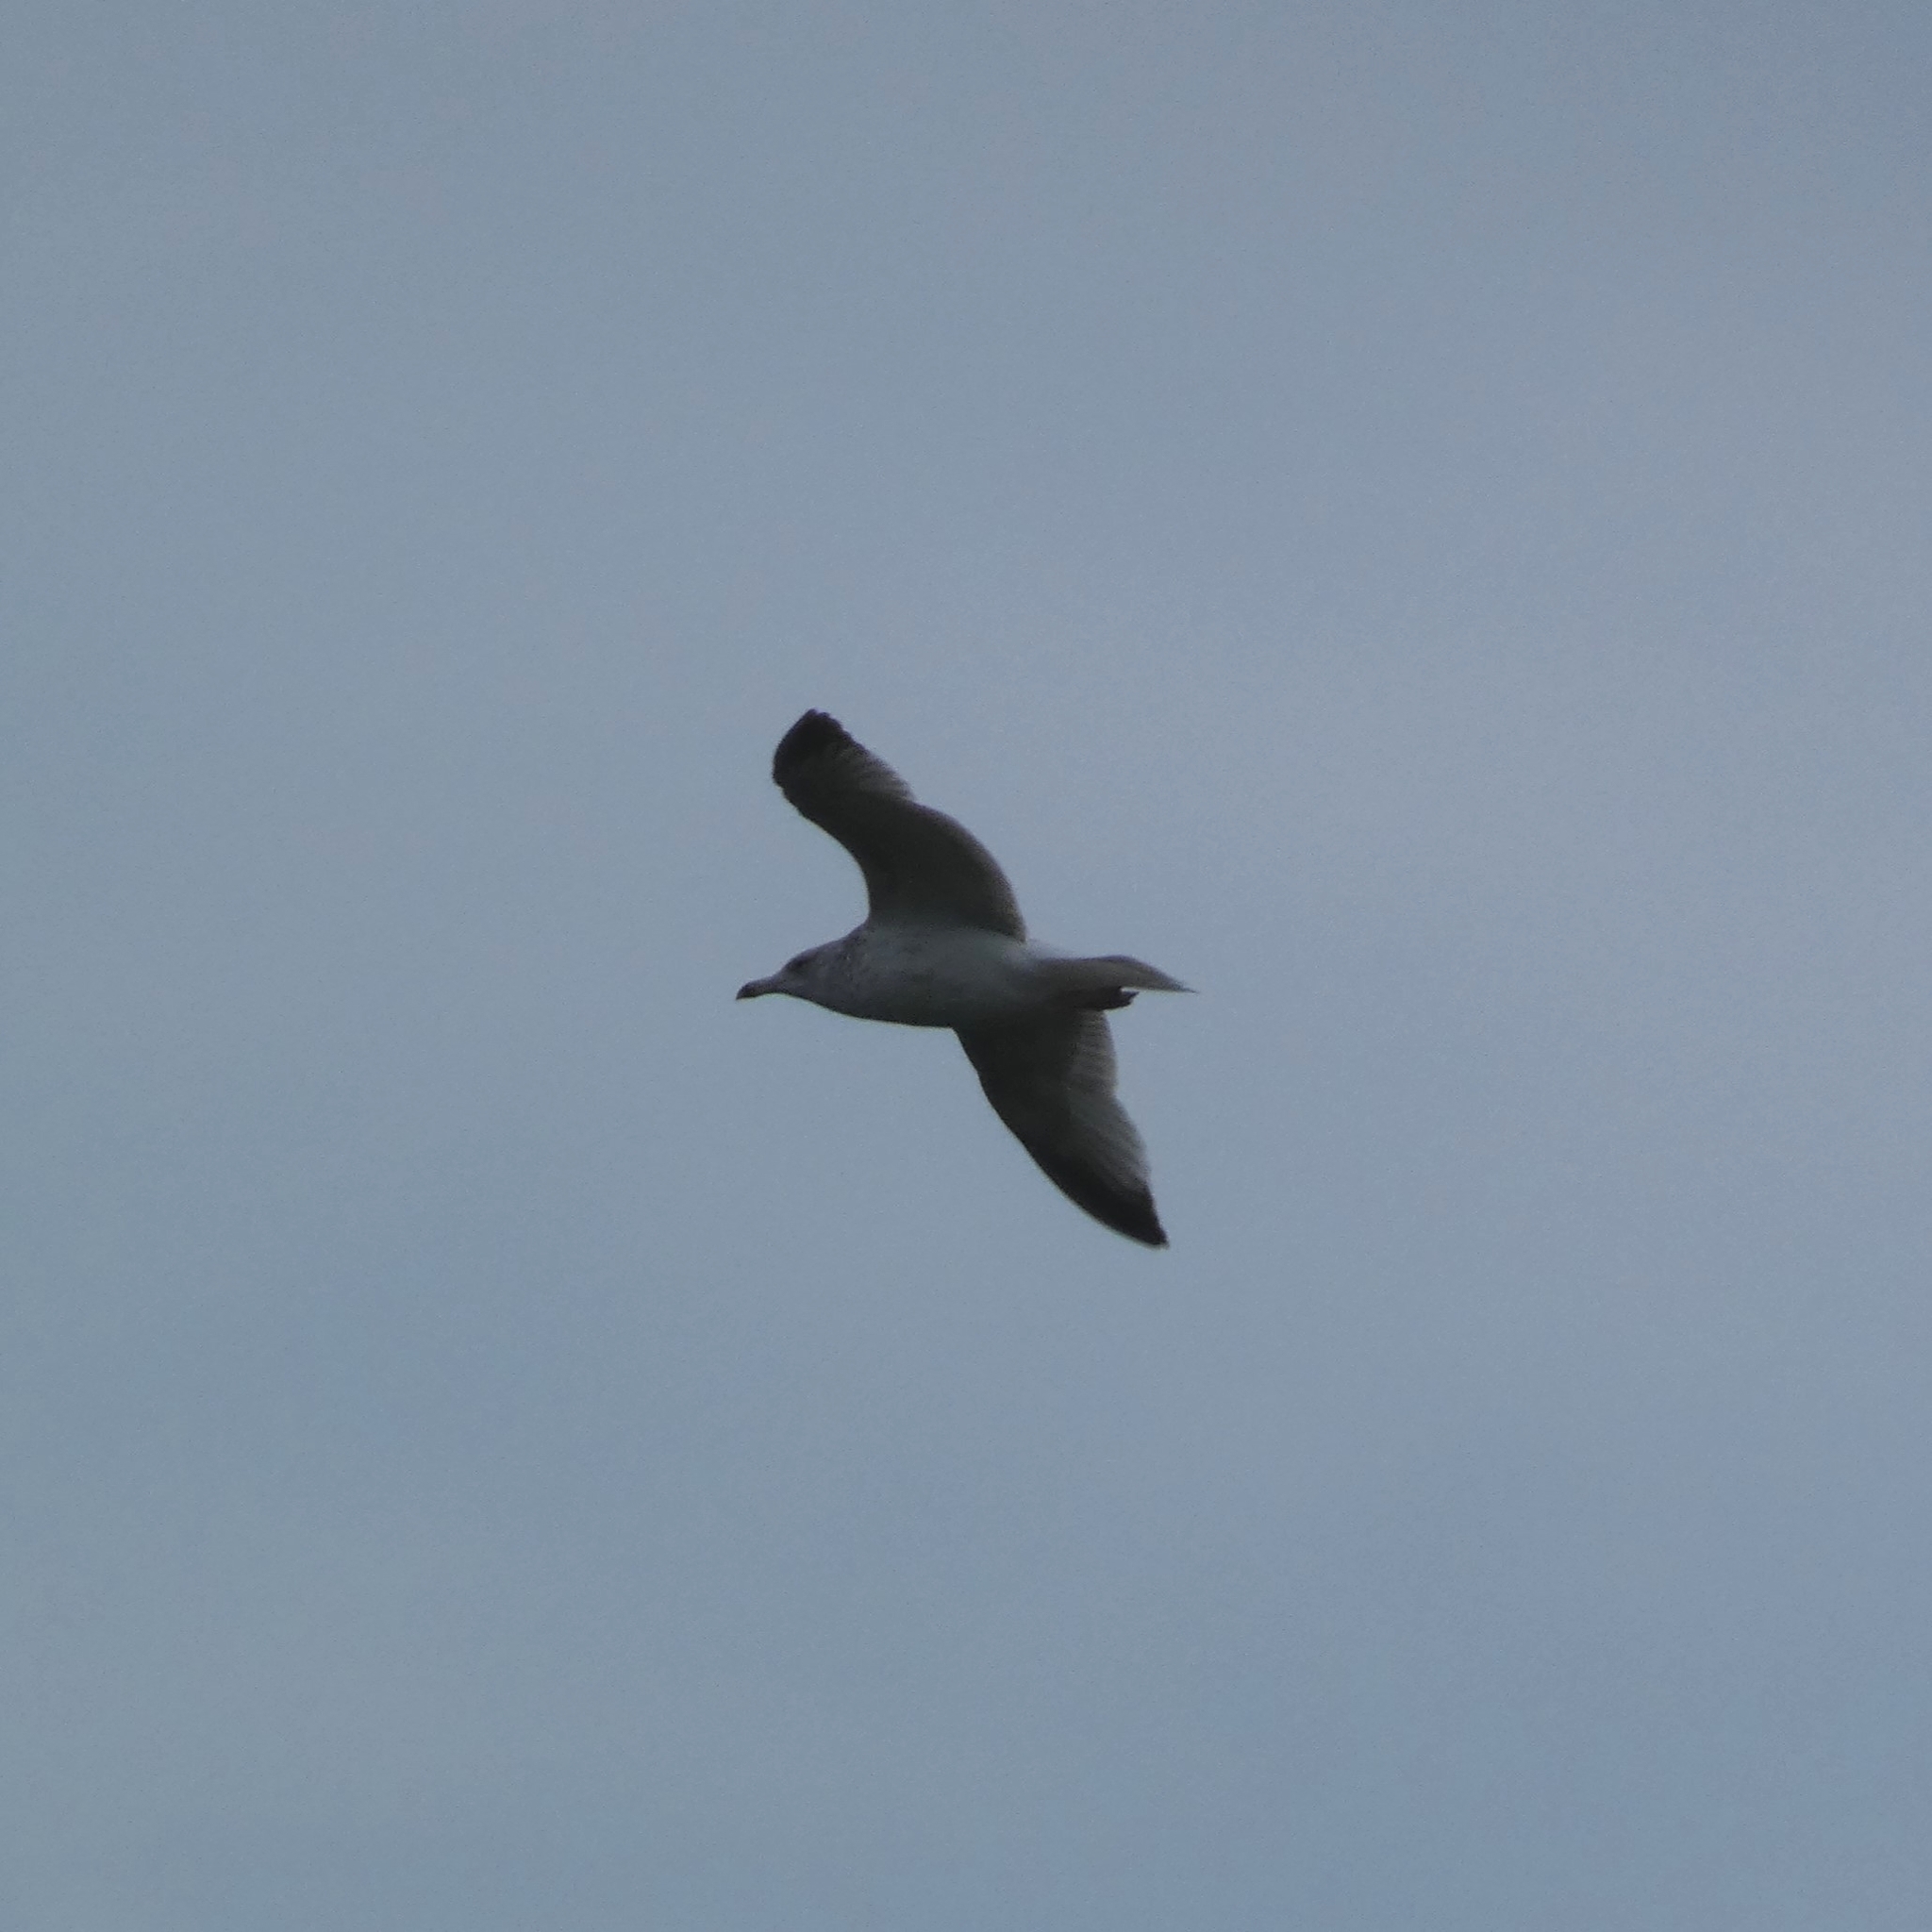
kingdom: Animalia
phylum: Chordata
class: Aves
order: Charadriiformes
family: Laridae
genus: Larus
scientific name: Larus argentatus
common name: Herring gull
